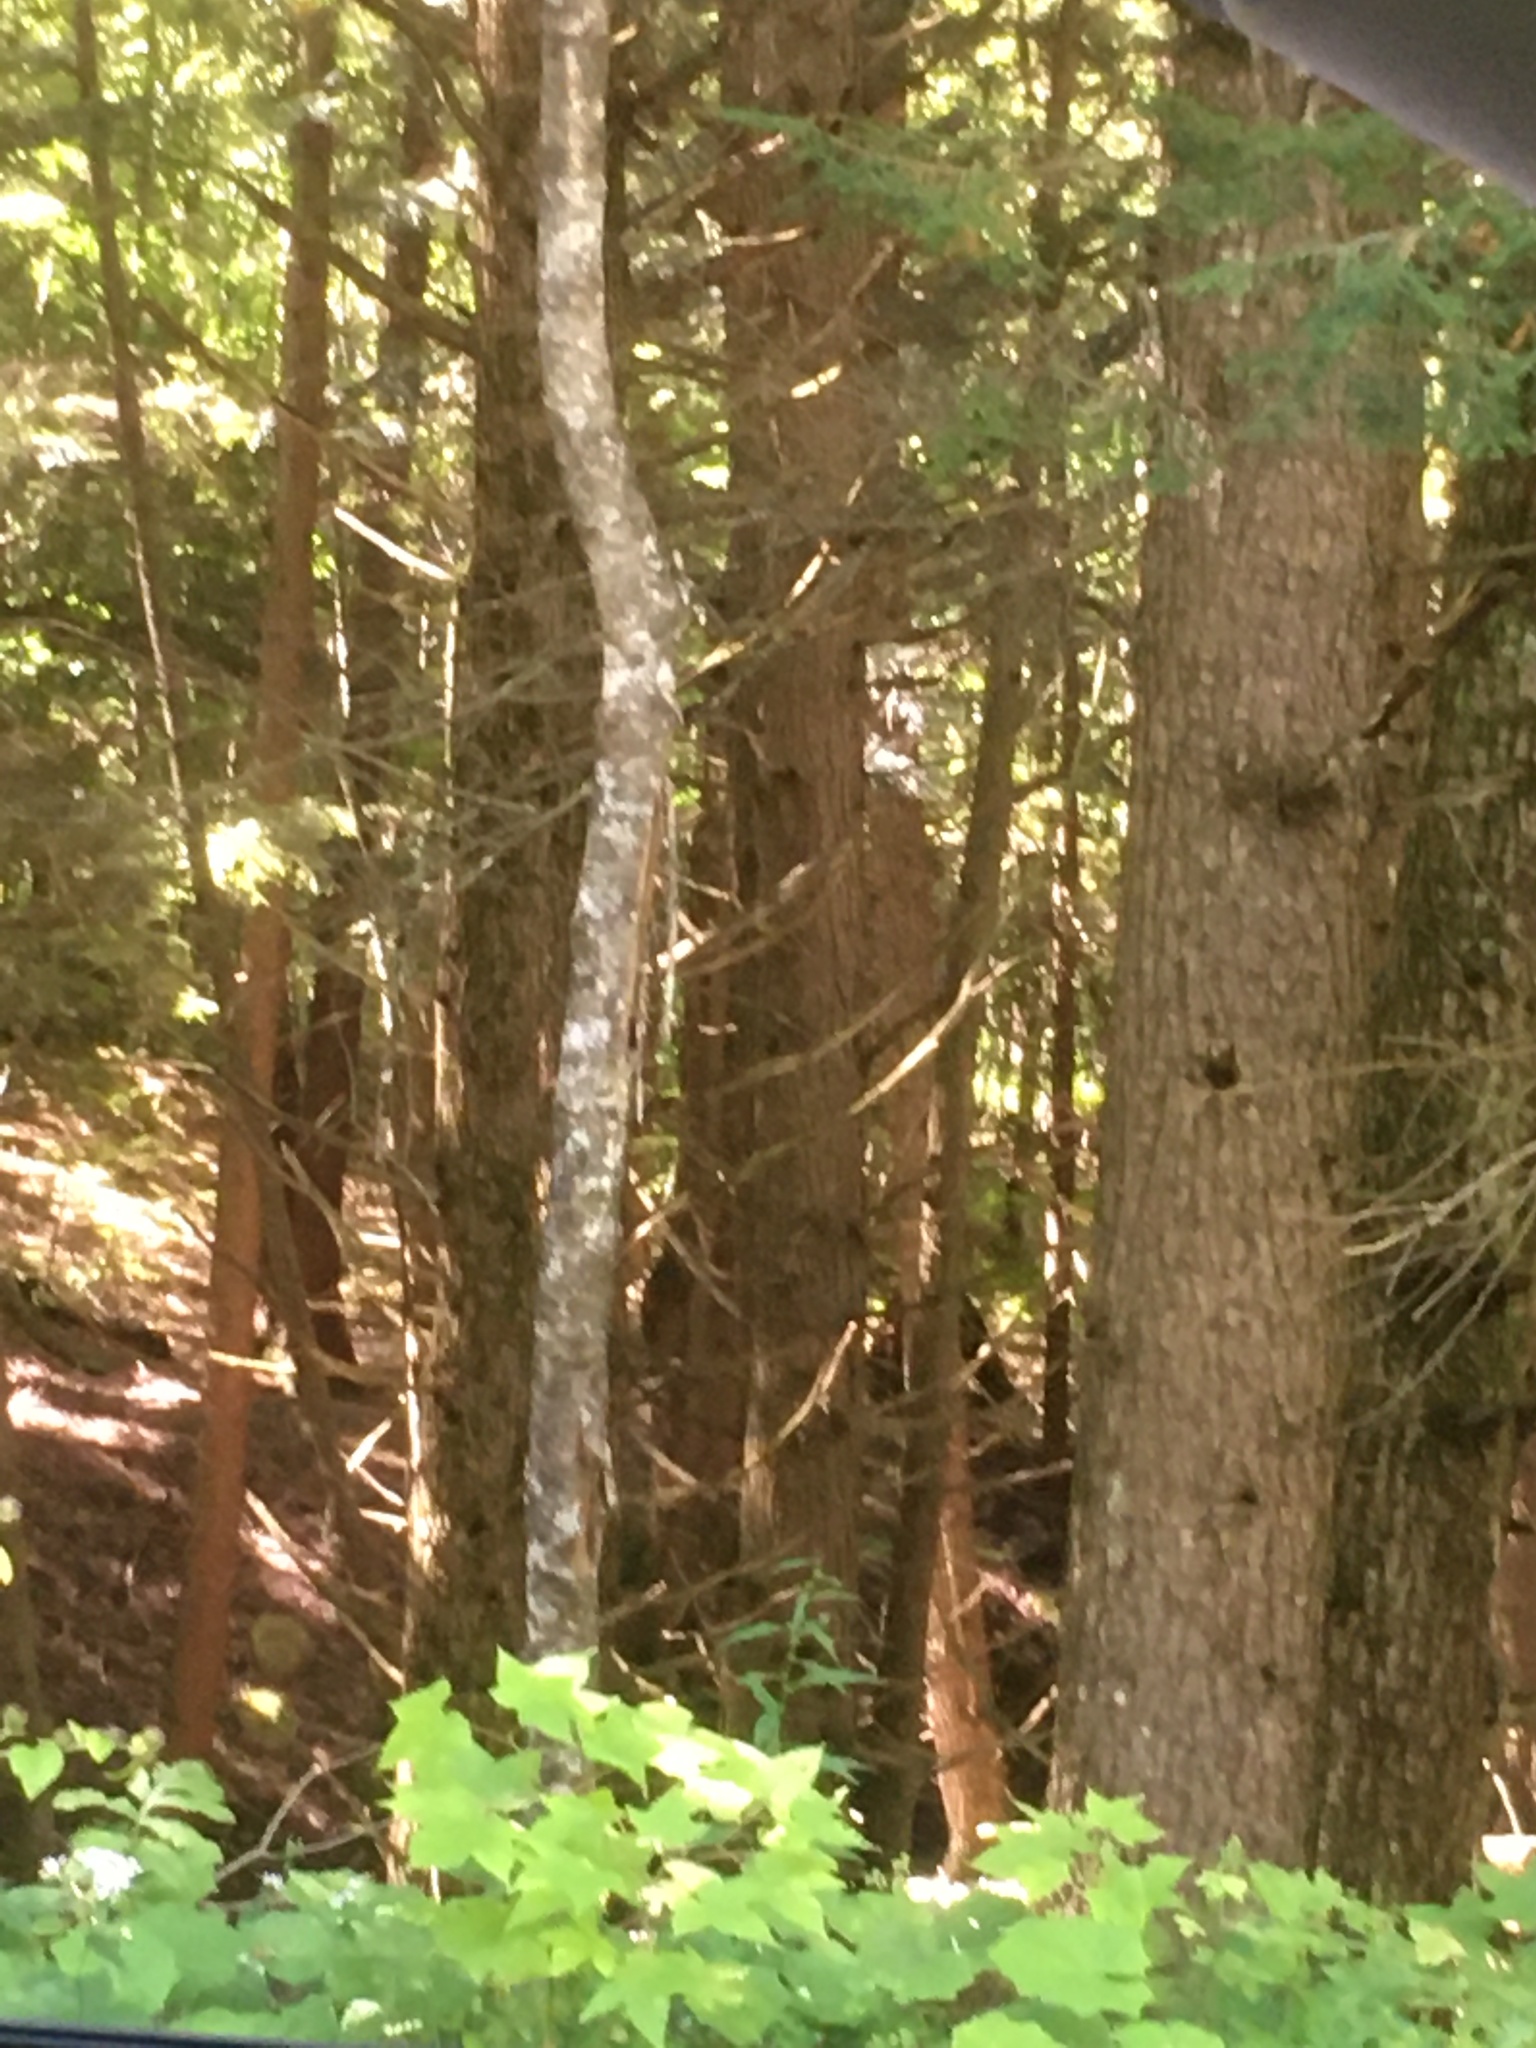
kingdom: Plantae
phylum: Tracheophyta
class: Pinopsida
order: Pinales
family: Pinaceae
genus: Tsuga
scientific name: Tsuga canadensis
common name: Eastern hemlock
